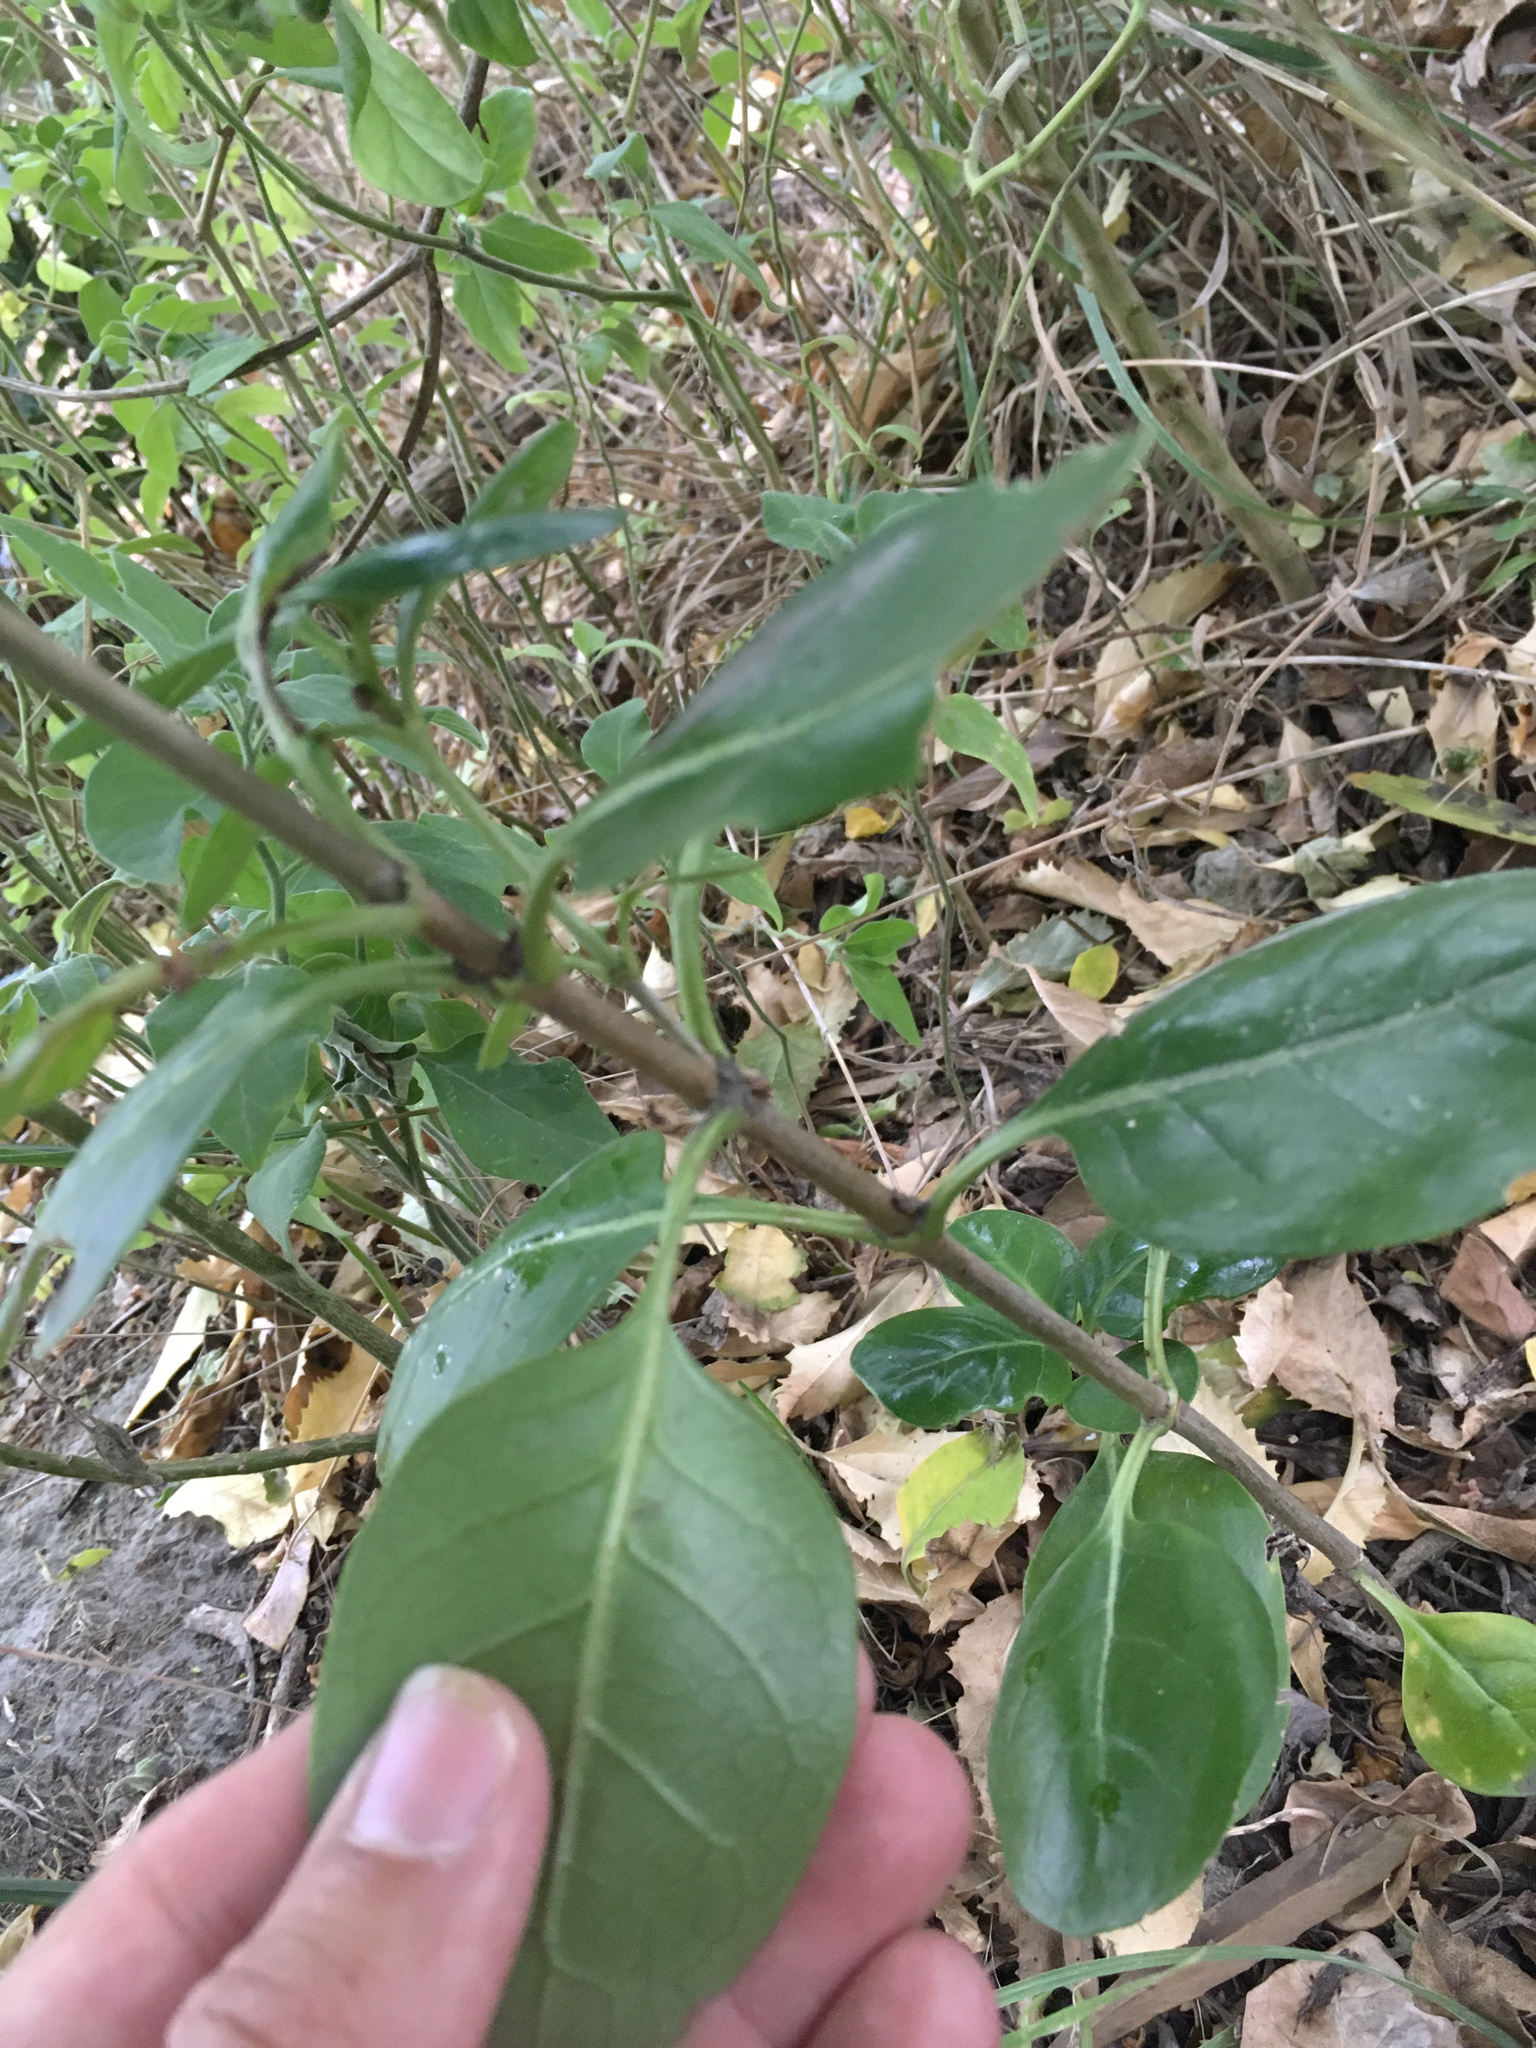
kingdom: Plantae
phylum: Tracheophyta
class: Magnoliopsida
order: Gentianales
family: Rubiaceae
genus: Coprosma
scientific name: Coprosma repens
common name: Tree bedstraw
